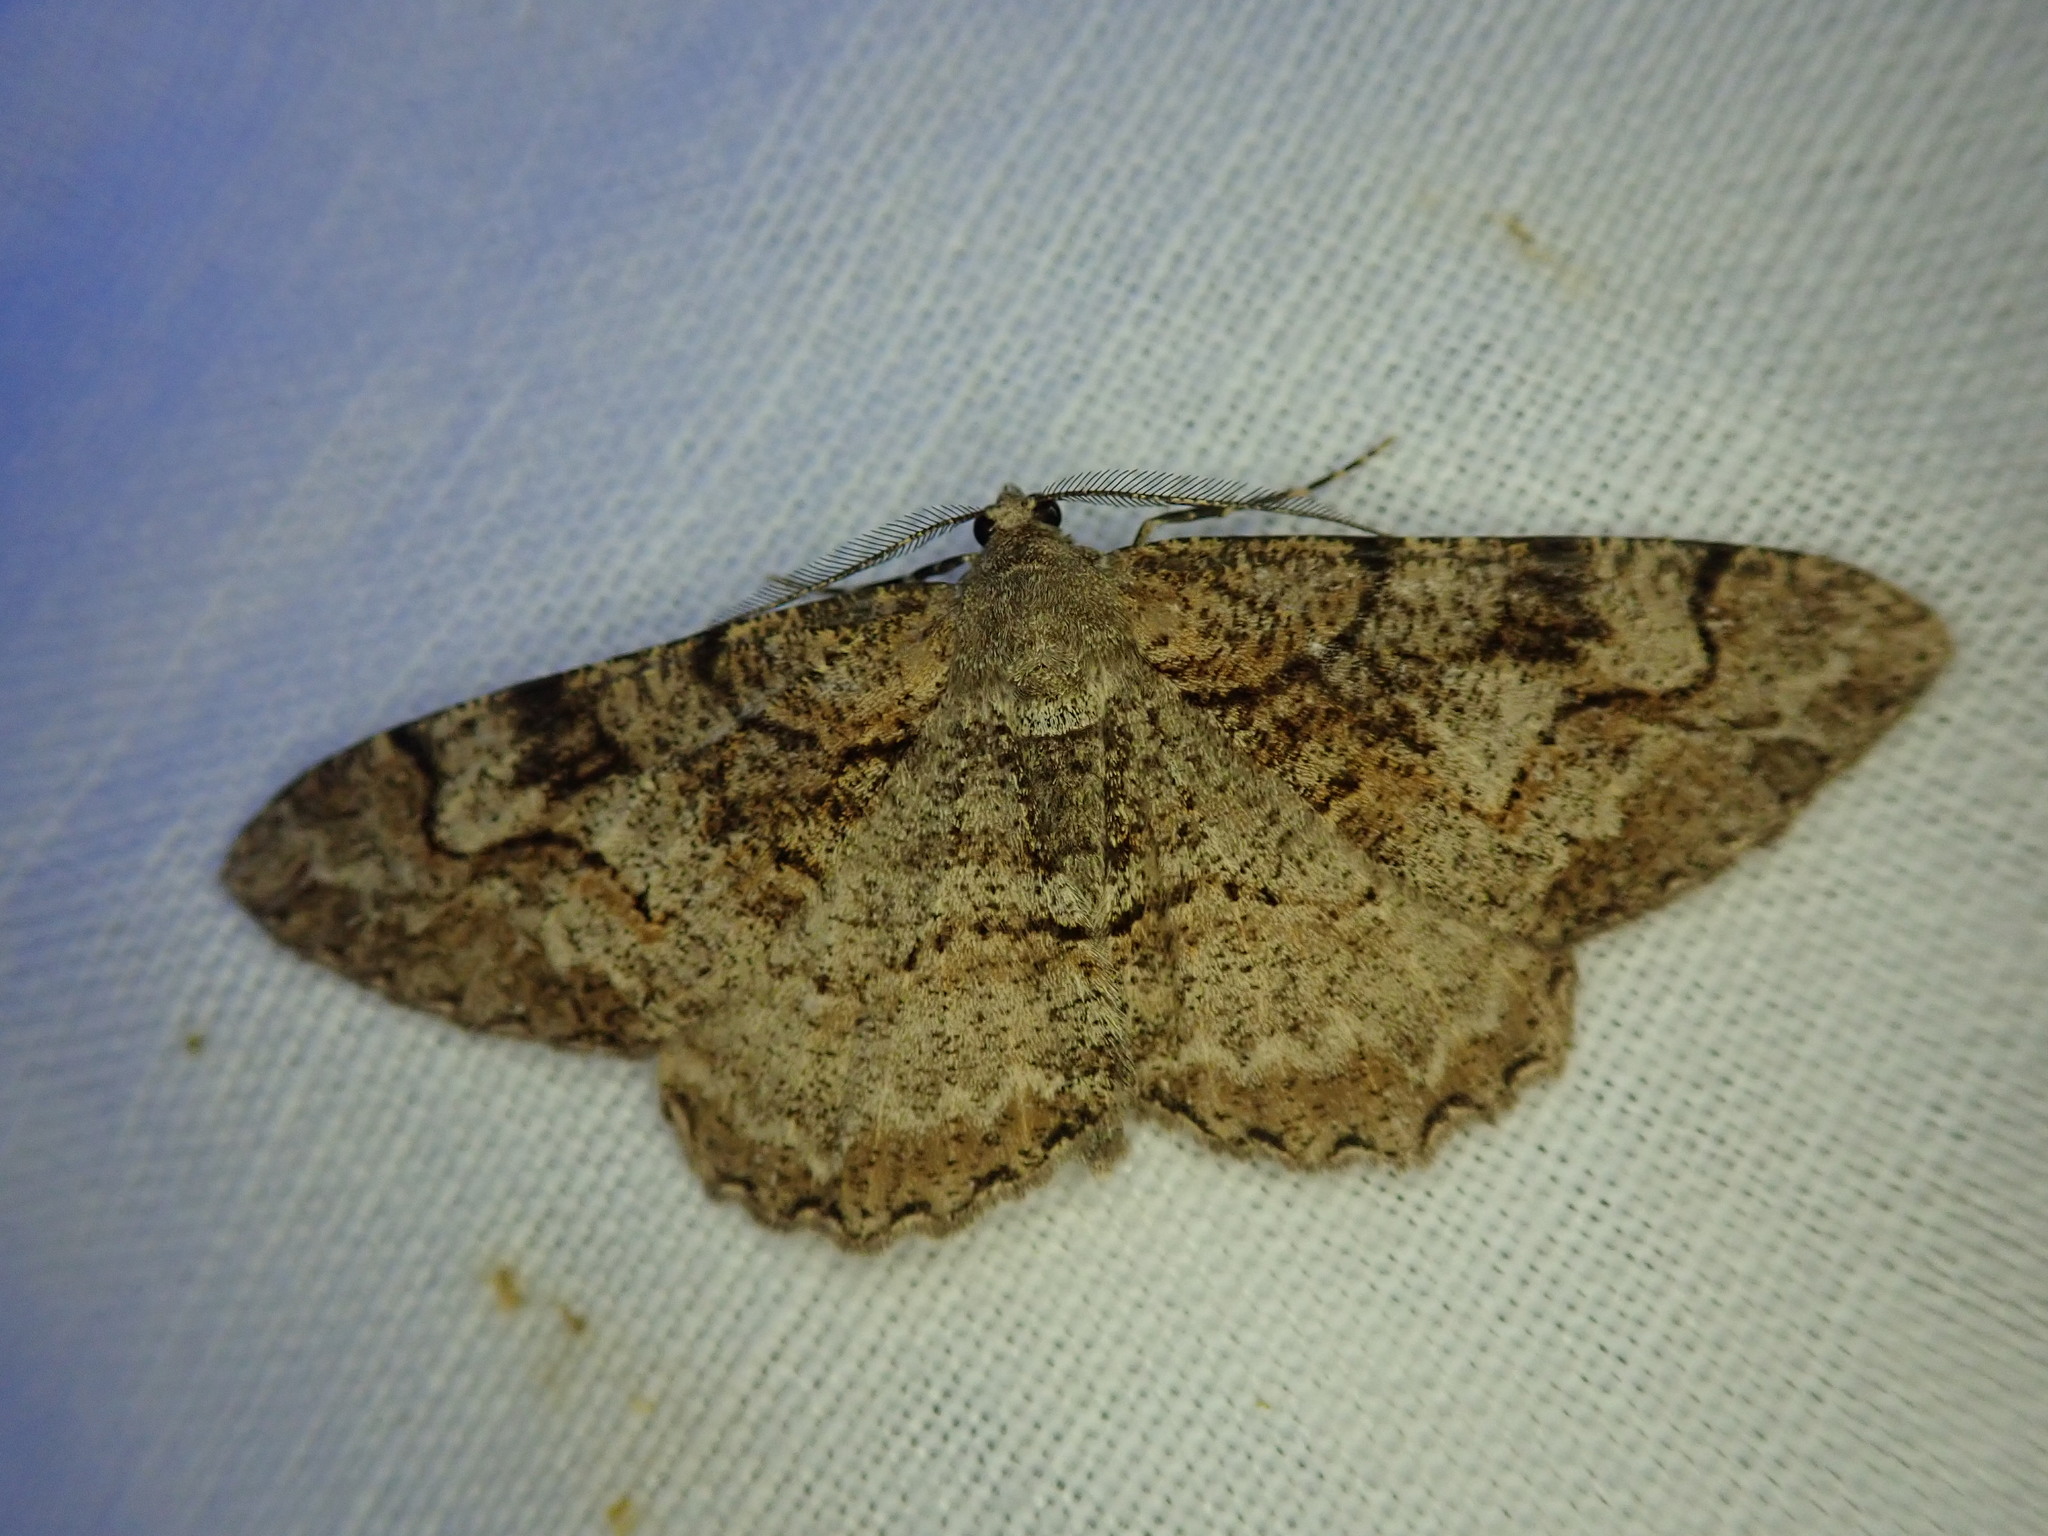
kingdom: Animalia
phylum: Arthropoda
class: Insecta
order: Lepidoptera
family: Geometridae
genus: Alcis
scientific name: Alcis repandata
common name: Mottled beauty
